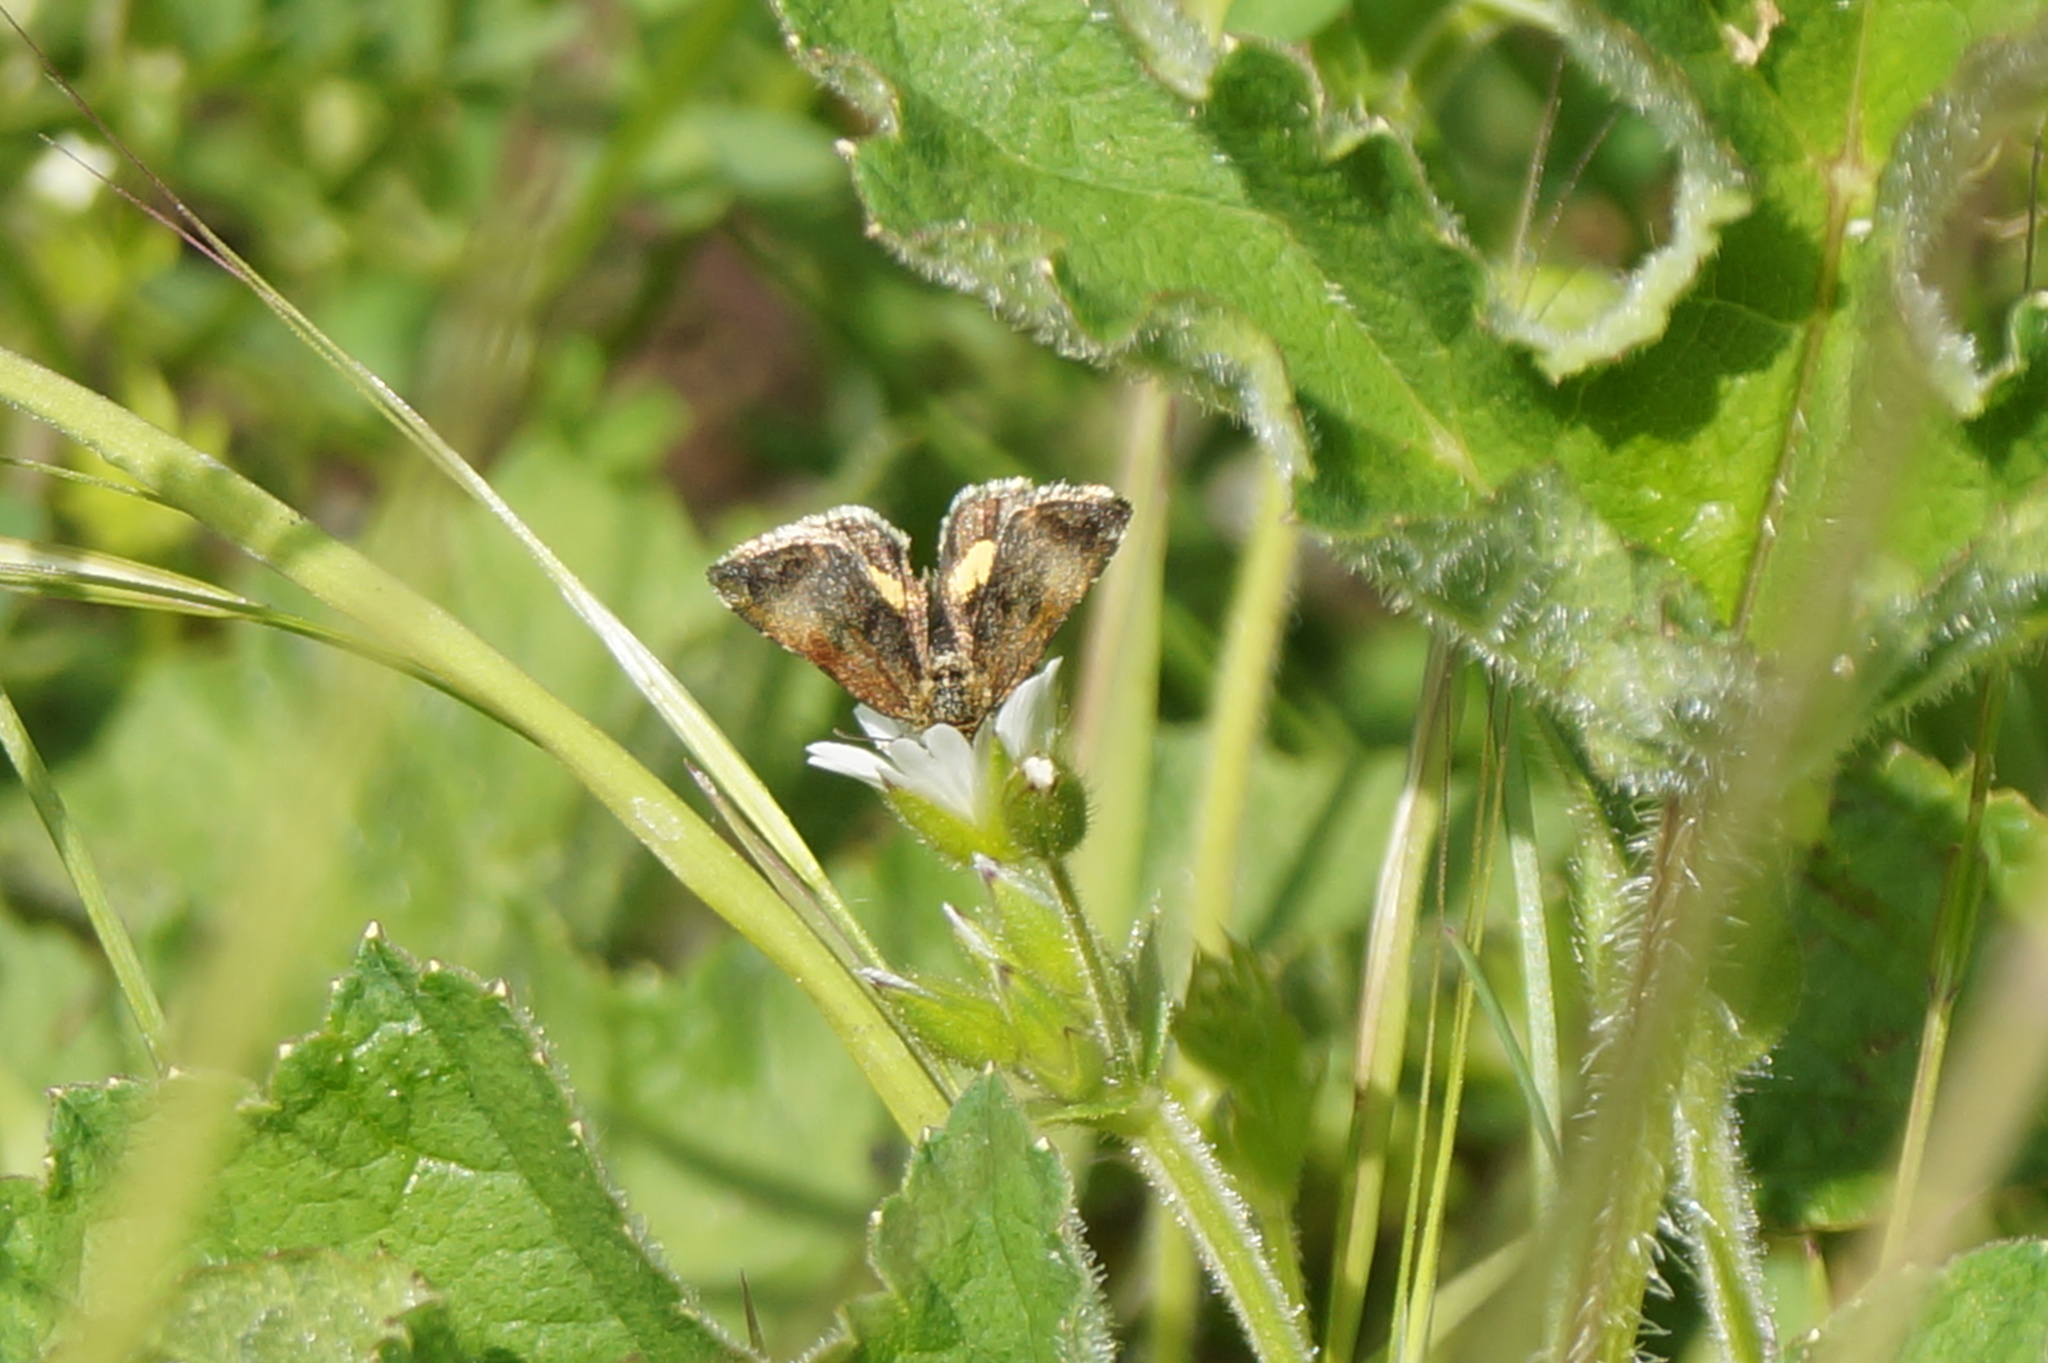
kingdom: Animalia
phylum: Arthropoda
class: Insecta
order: Lepidoptera
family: Noctuidae
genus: Panemeria
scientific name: Panemeria tenebrata
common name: Small yellow underwing
